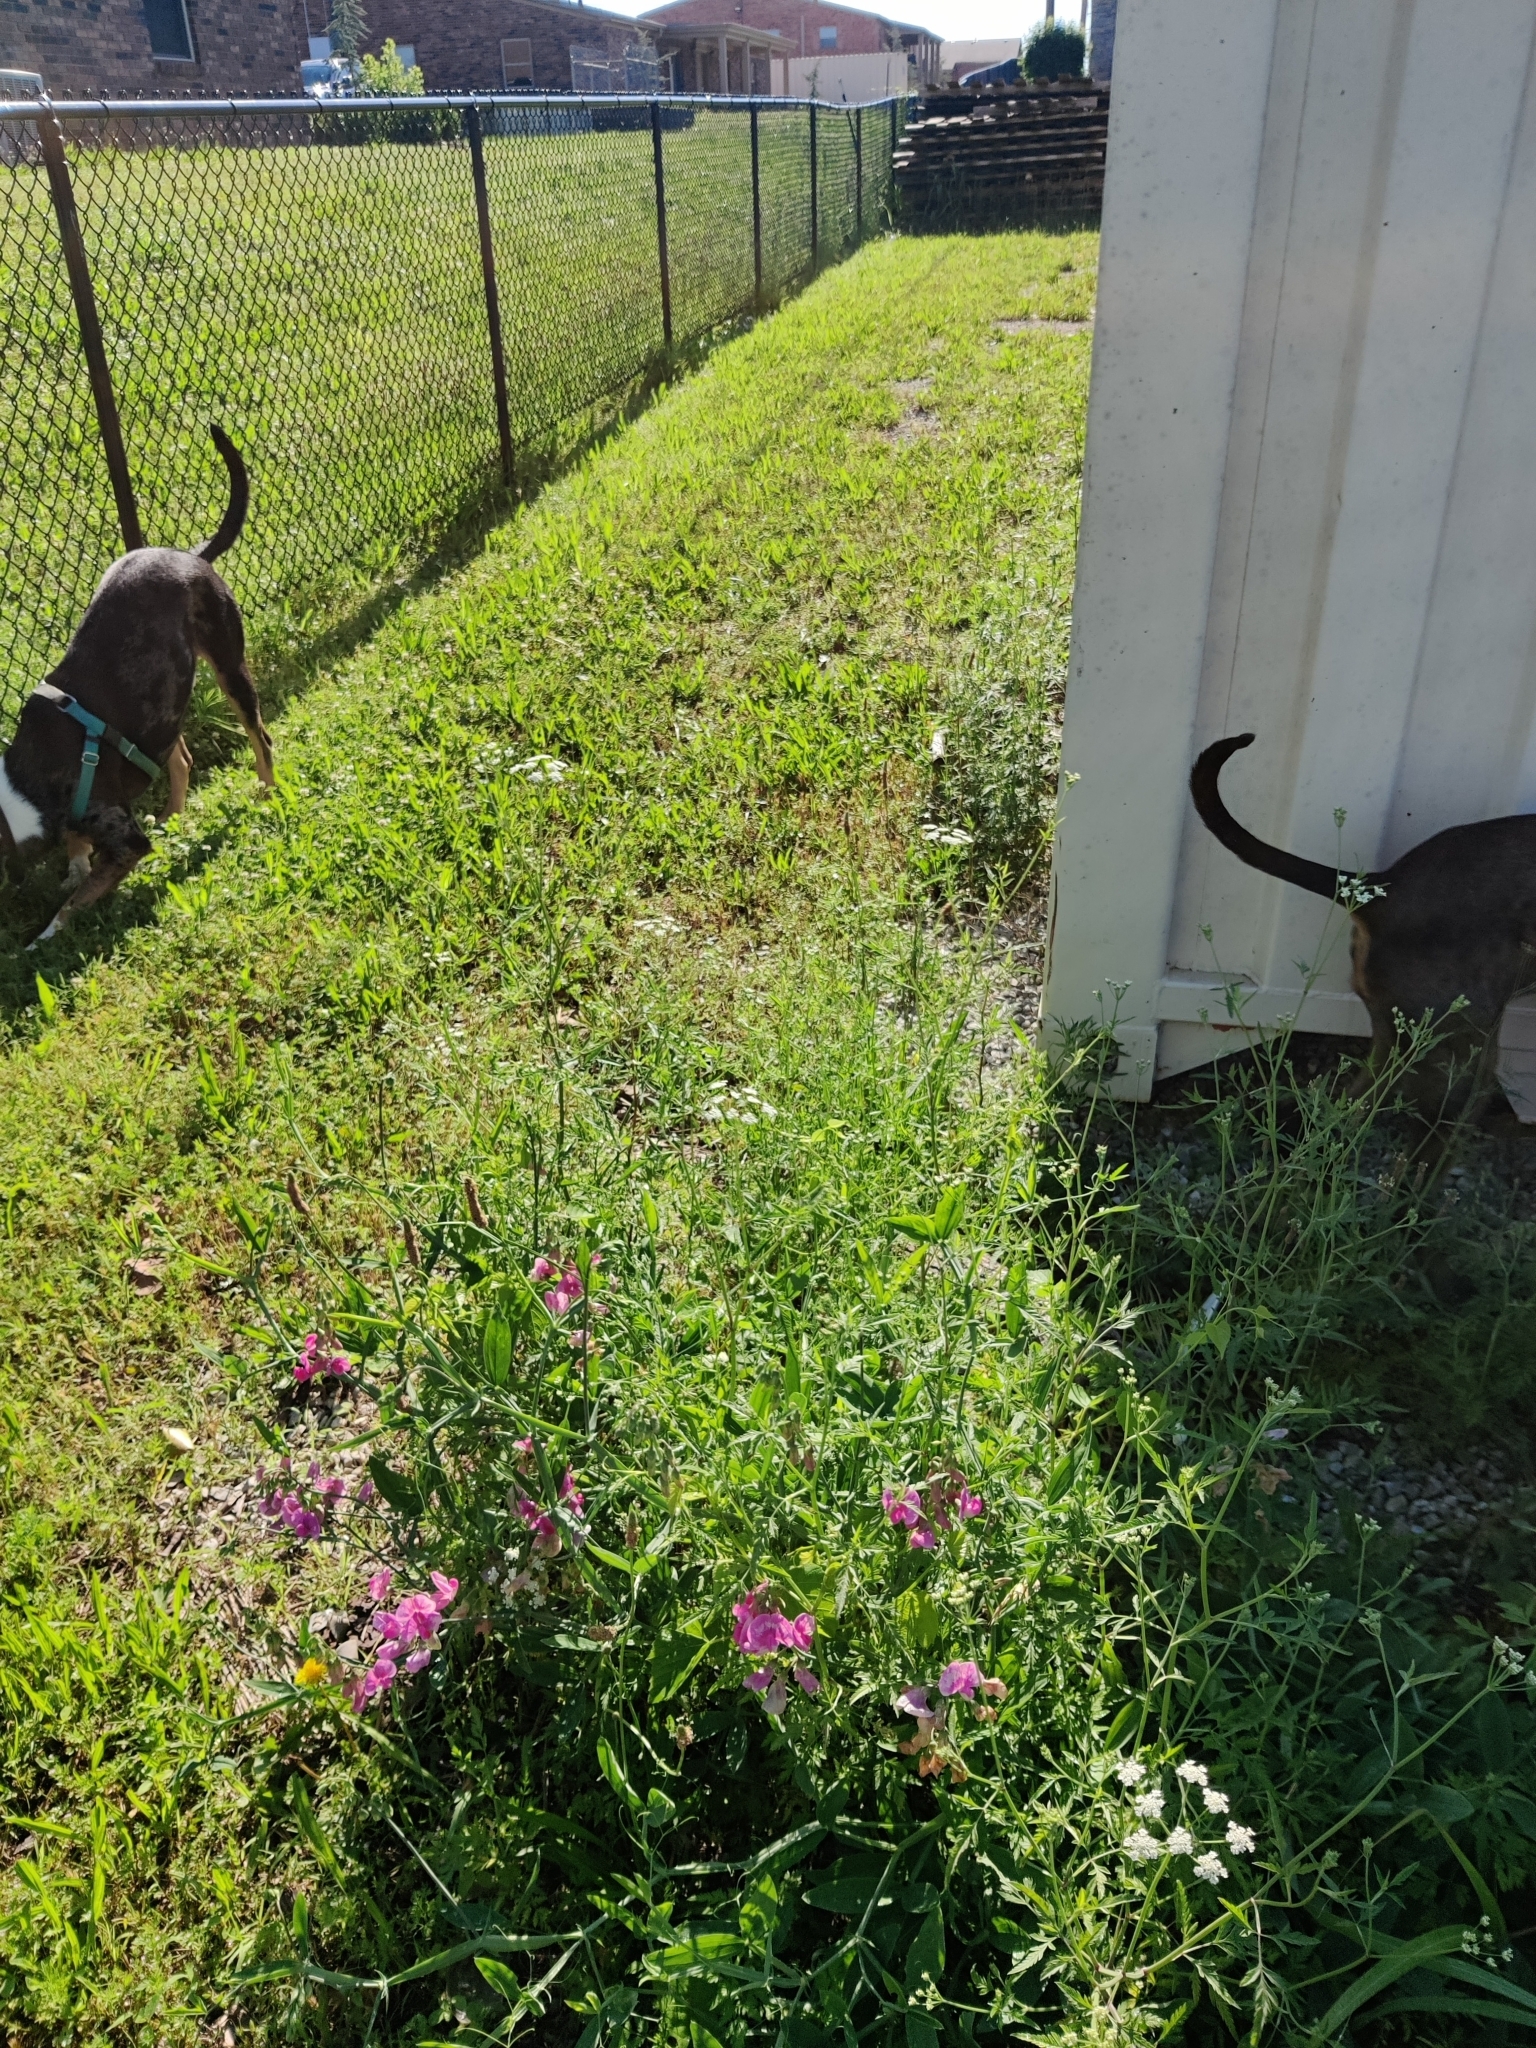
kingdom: Plantae
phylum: Tracheophyta
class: Magnoliopsida
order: Fabales
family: Fabaceae
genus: Lathyrus
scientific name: Lathyrus latifolius
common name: Perennial pea
